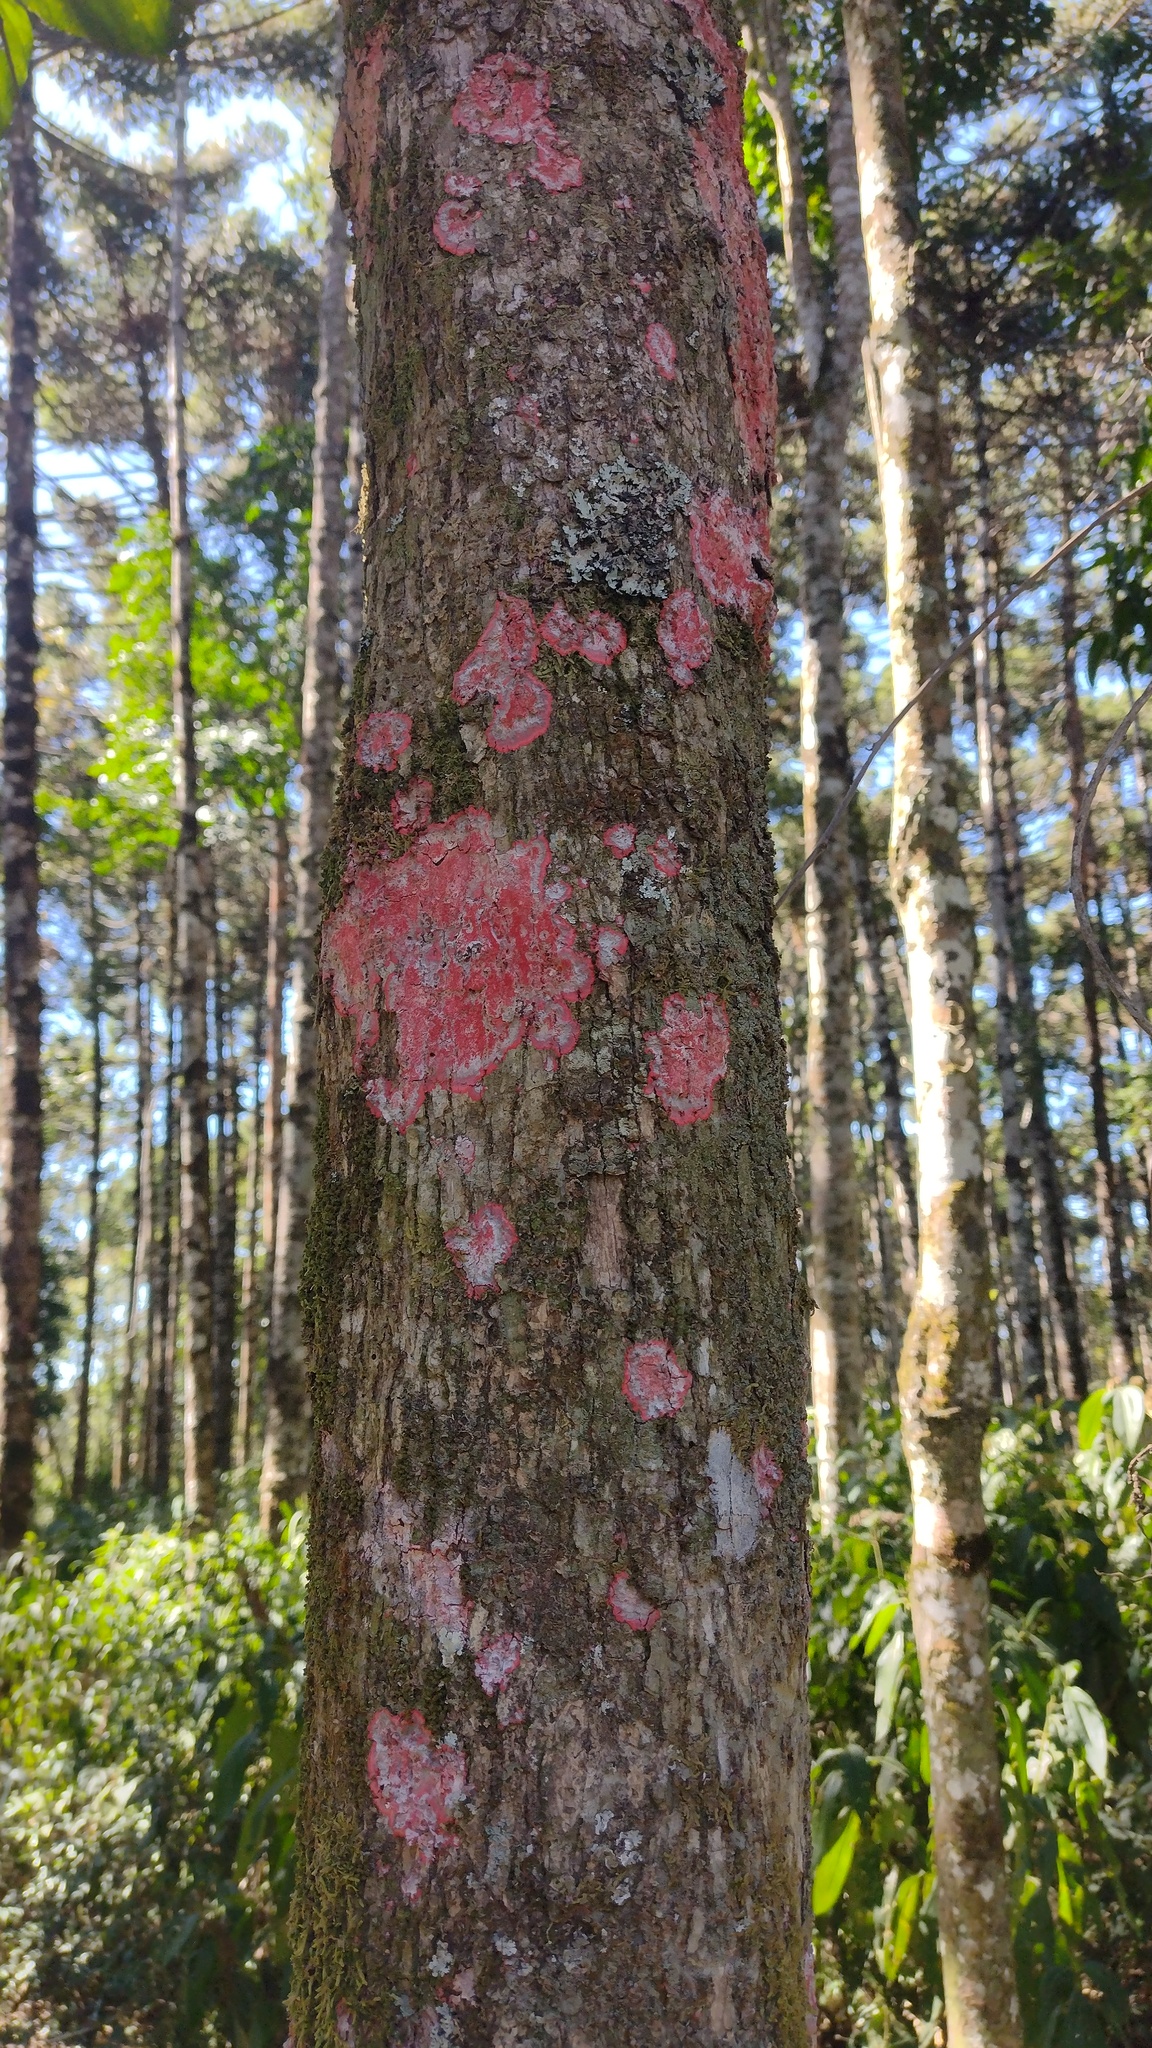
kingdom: Fungi
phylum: Ascomycota
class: Arthoniomycetes
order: Arthoniales
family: Arthoniaceae
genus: Herpothallon
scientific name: Herpothallon rubrocinctum
